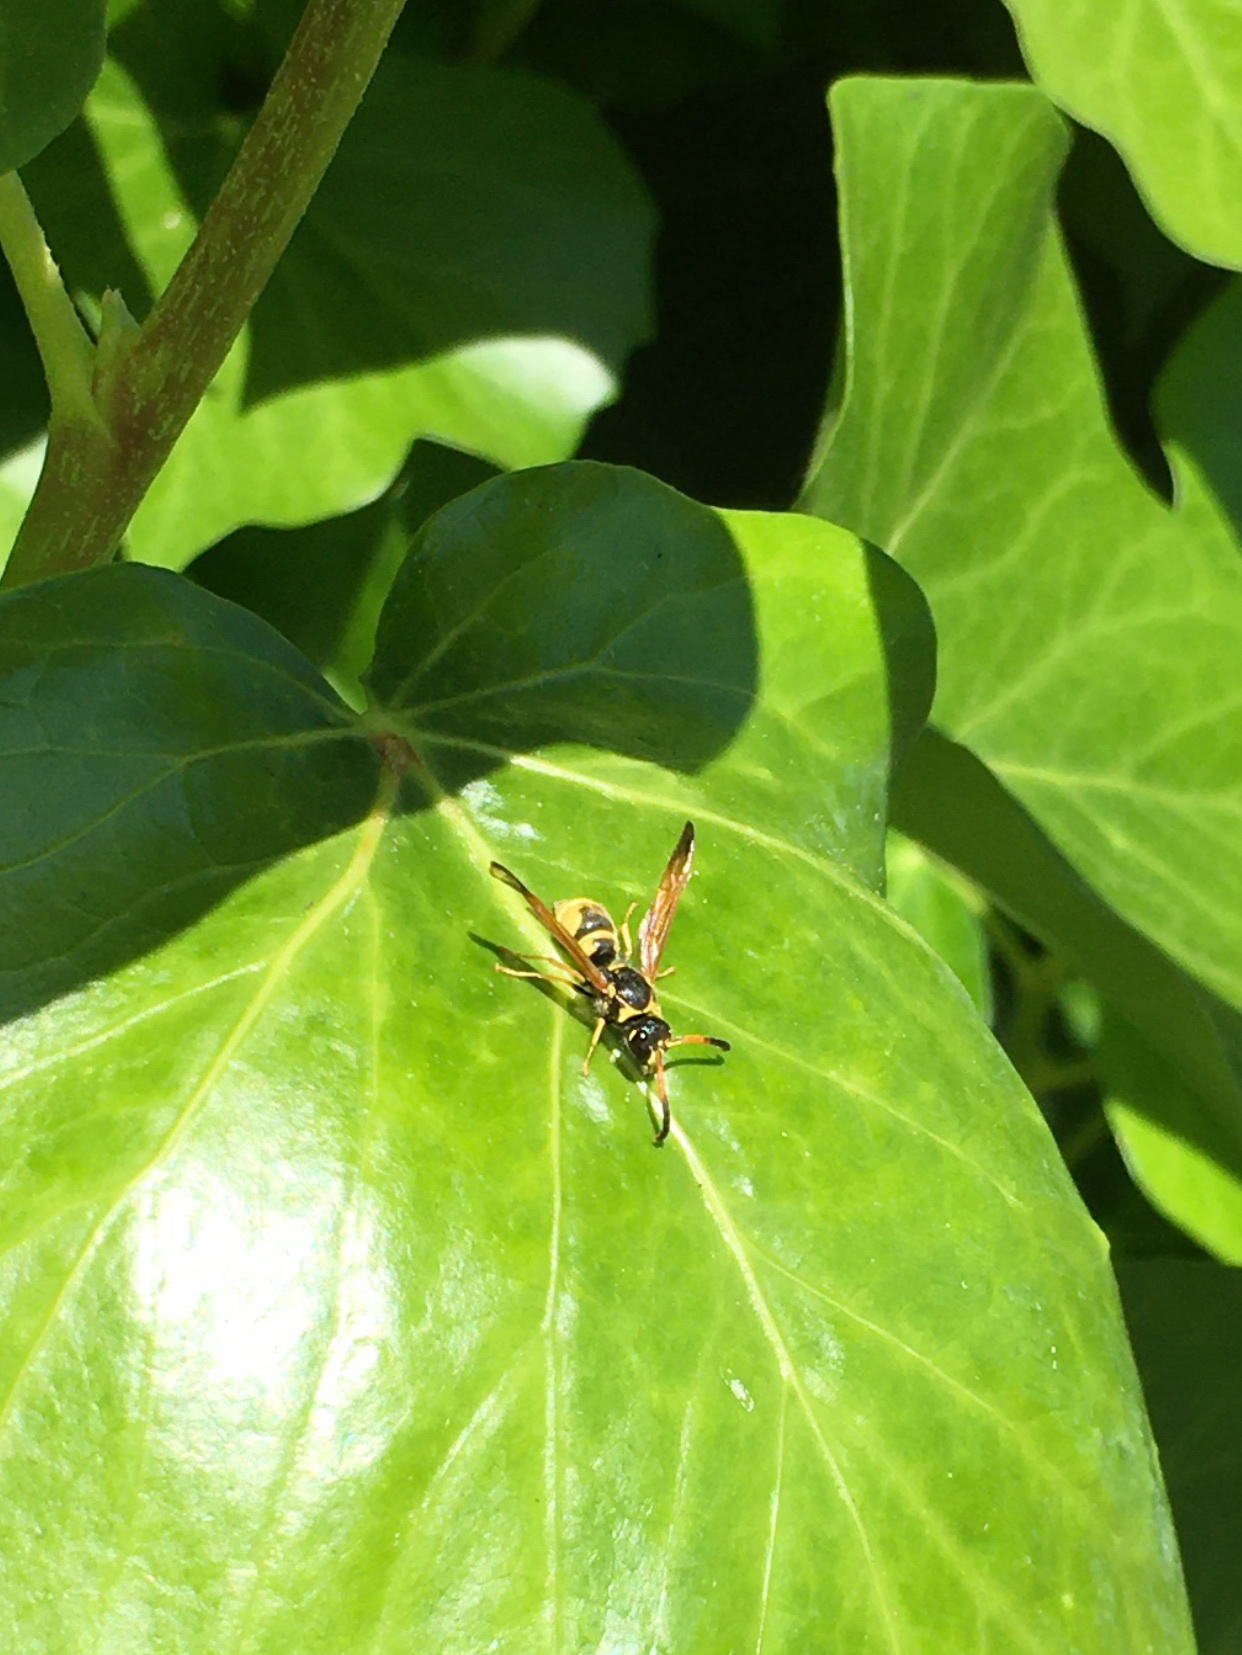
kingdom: Animalia
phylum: Arthropoda
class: Insecta
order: Hymenoptera
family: Vespidae
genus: Ancistrocerus
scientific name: Ancistrocerus tuberculocephalus
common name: Vespid wasp
